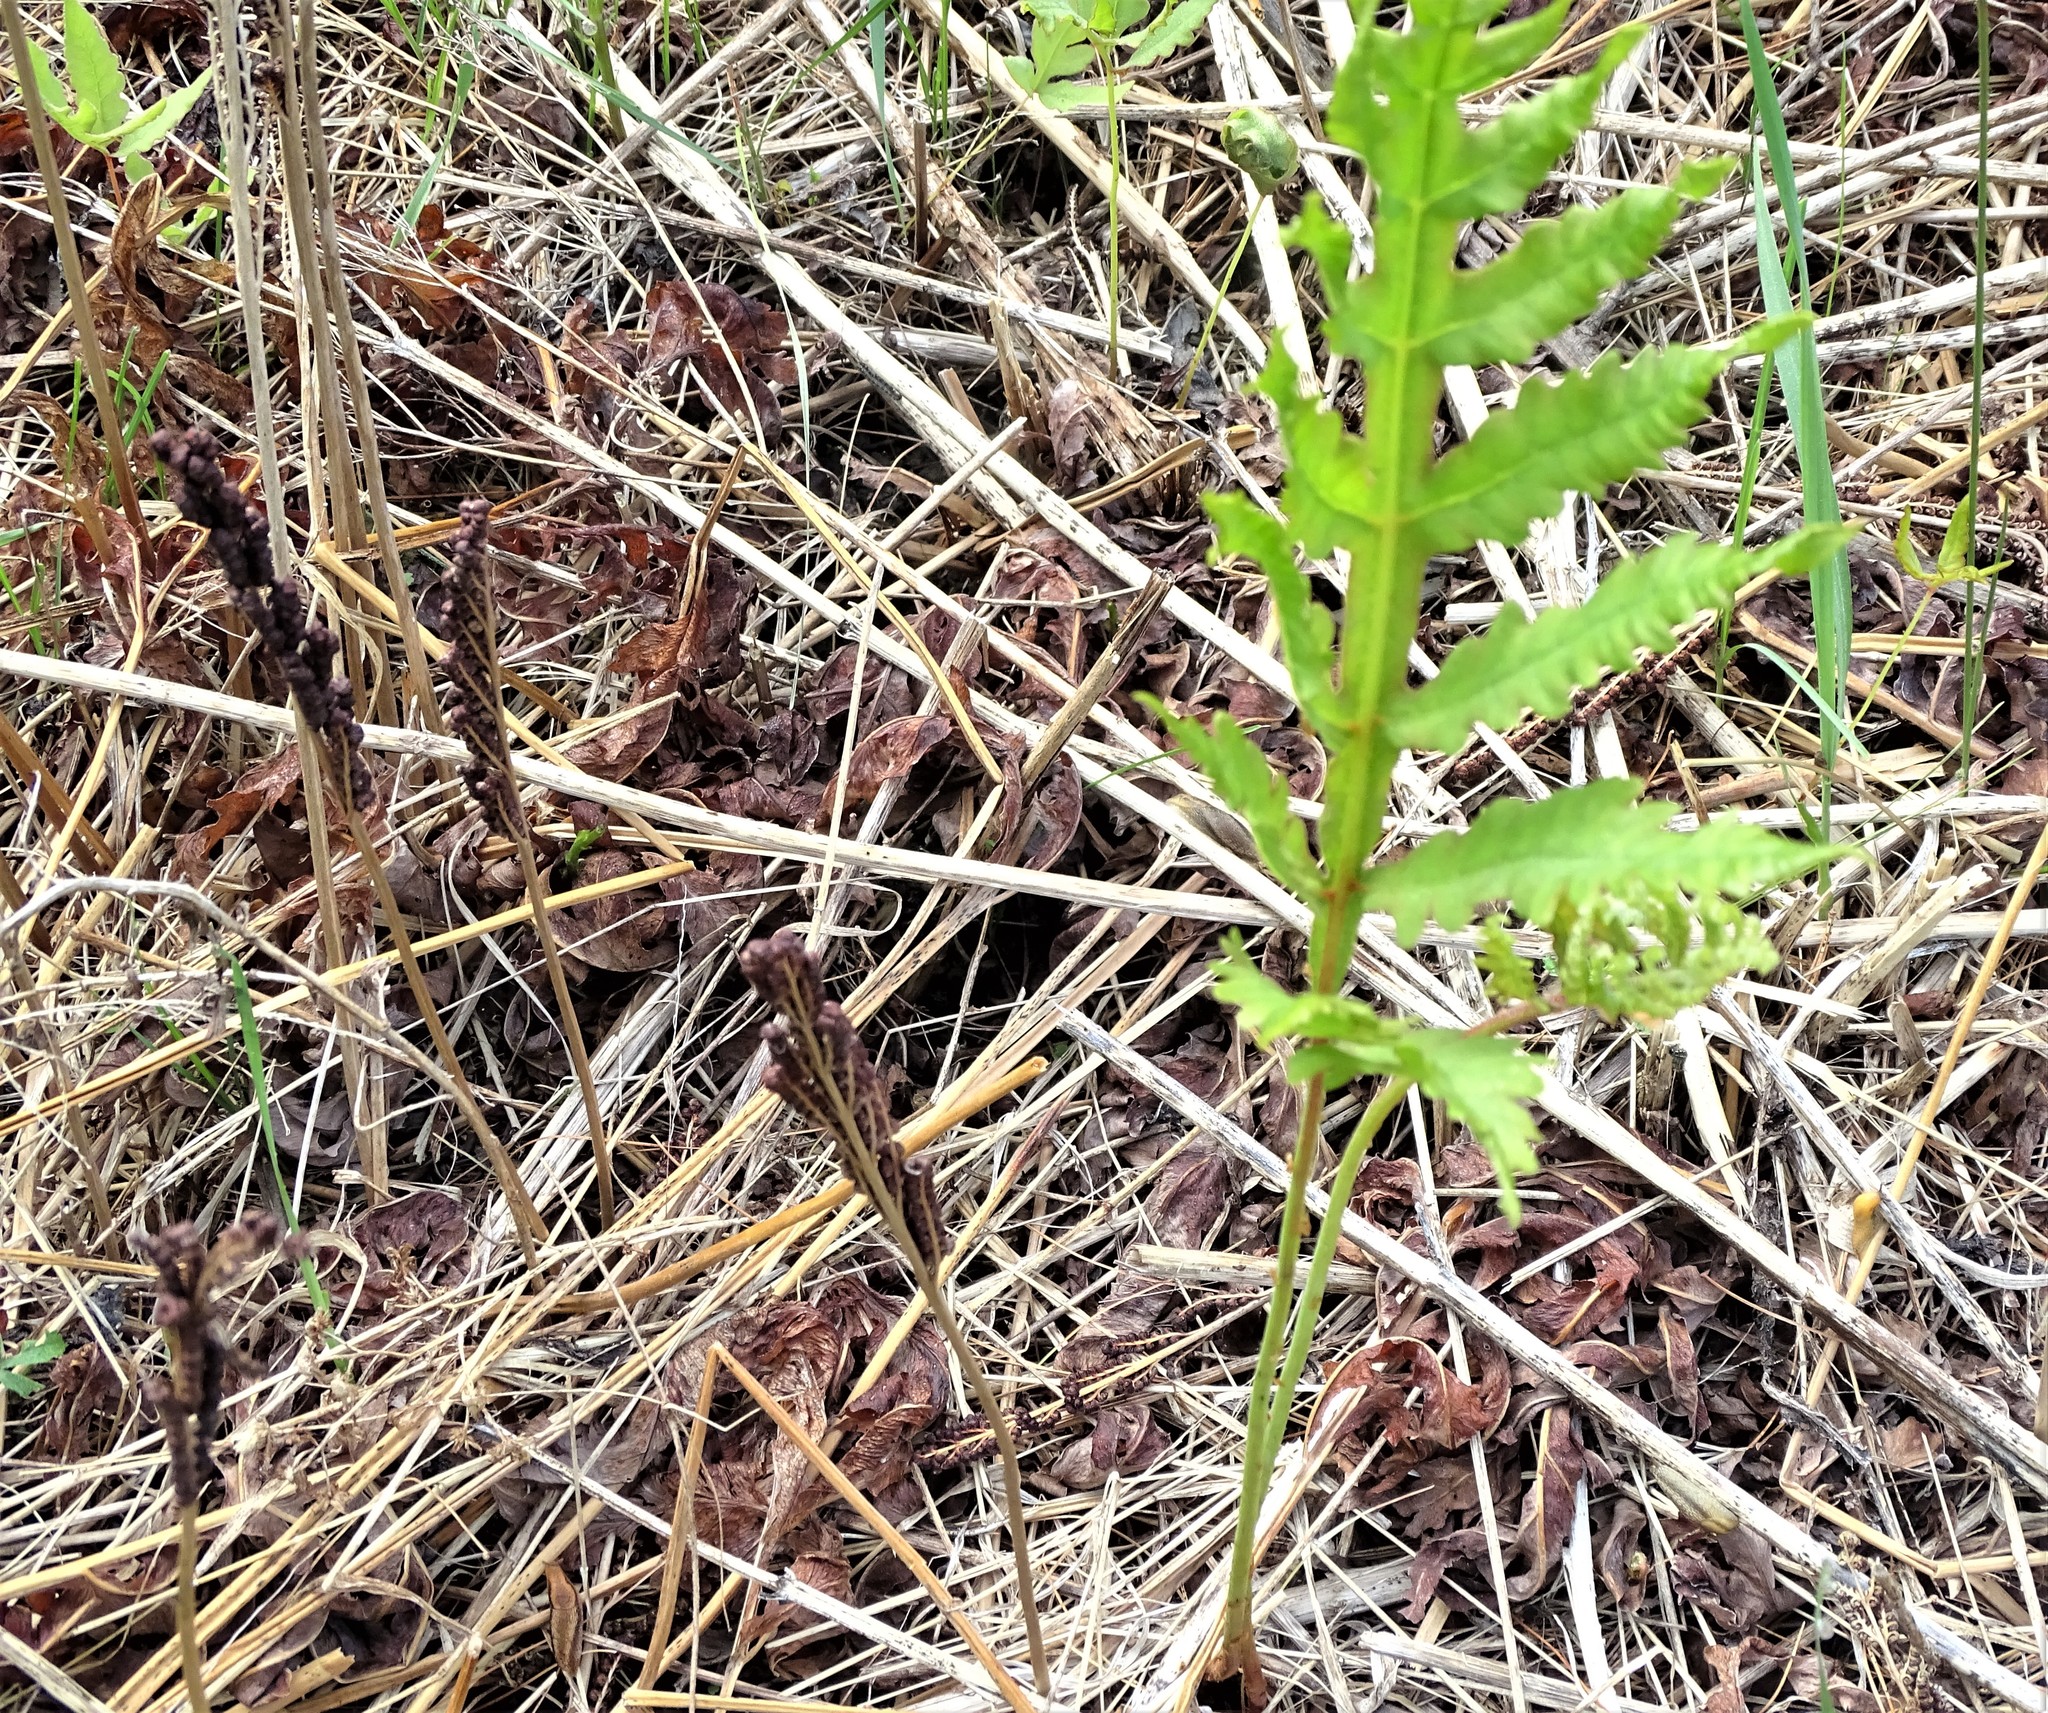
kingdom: Plantae
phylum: Tracheophyta
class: Polypodiopsida
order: Polypodiales
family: Onocleaceae
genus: Onoclea
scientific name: Onoclea sensibilis
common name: Sensitive fern
